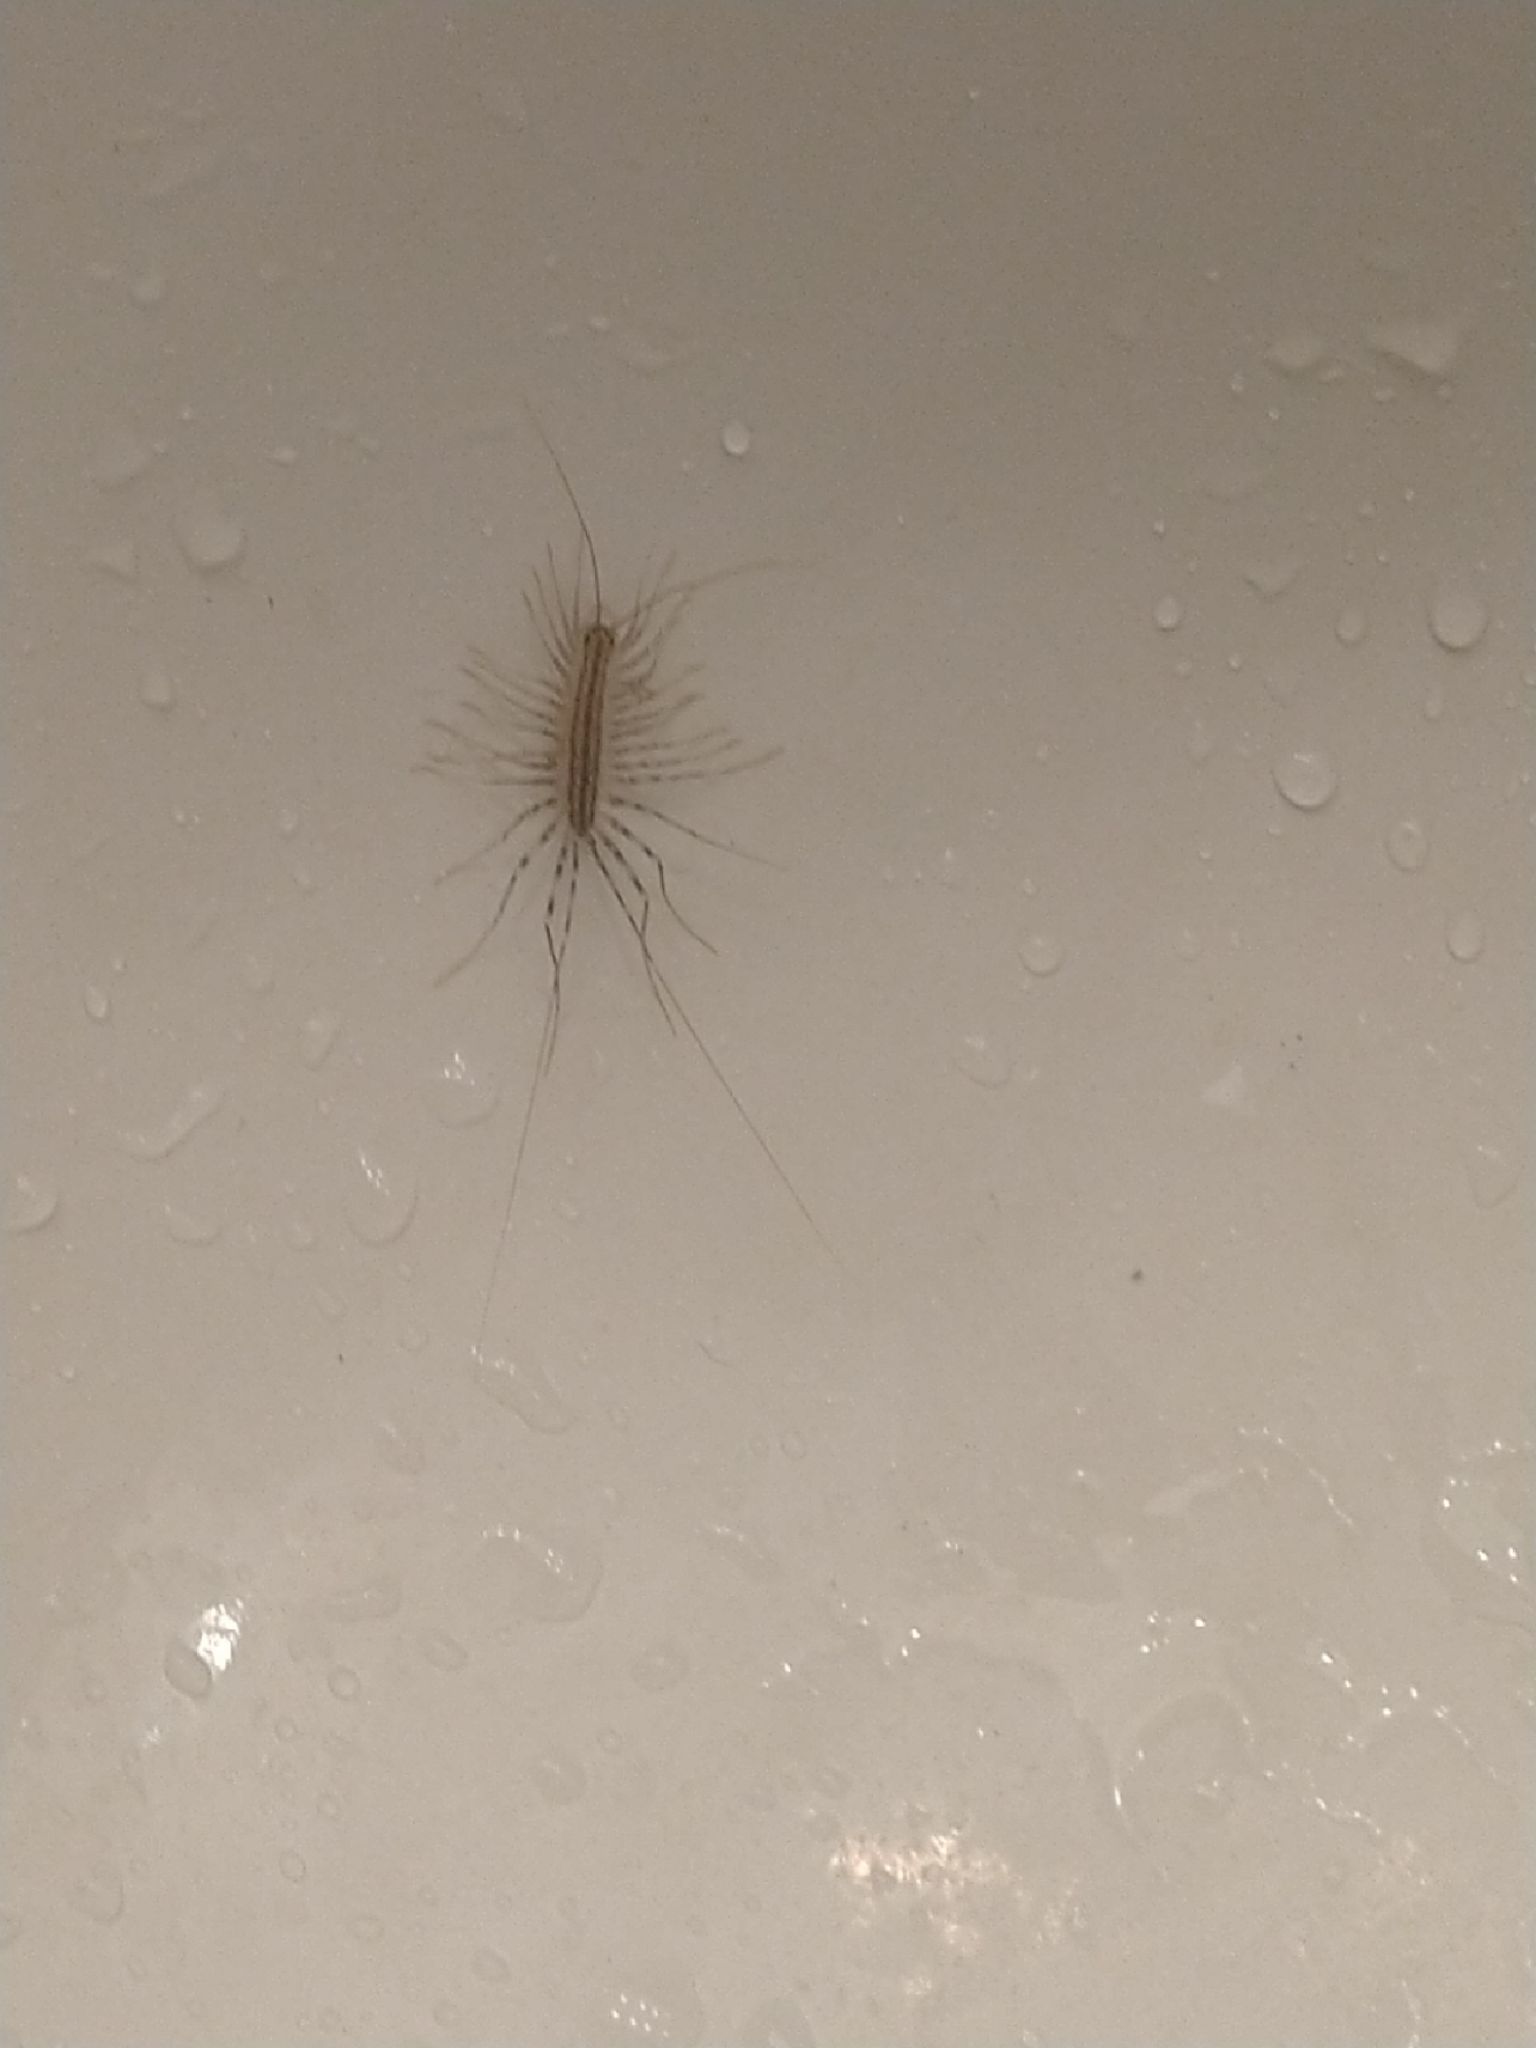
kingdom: Animalia
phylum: Arthropoda
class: Chilopoda
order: Scutigeromorpha
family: Scutigeridae
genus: Scutigera
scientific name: Scutigera coleoptrata
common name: House centipede
